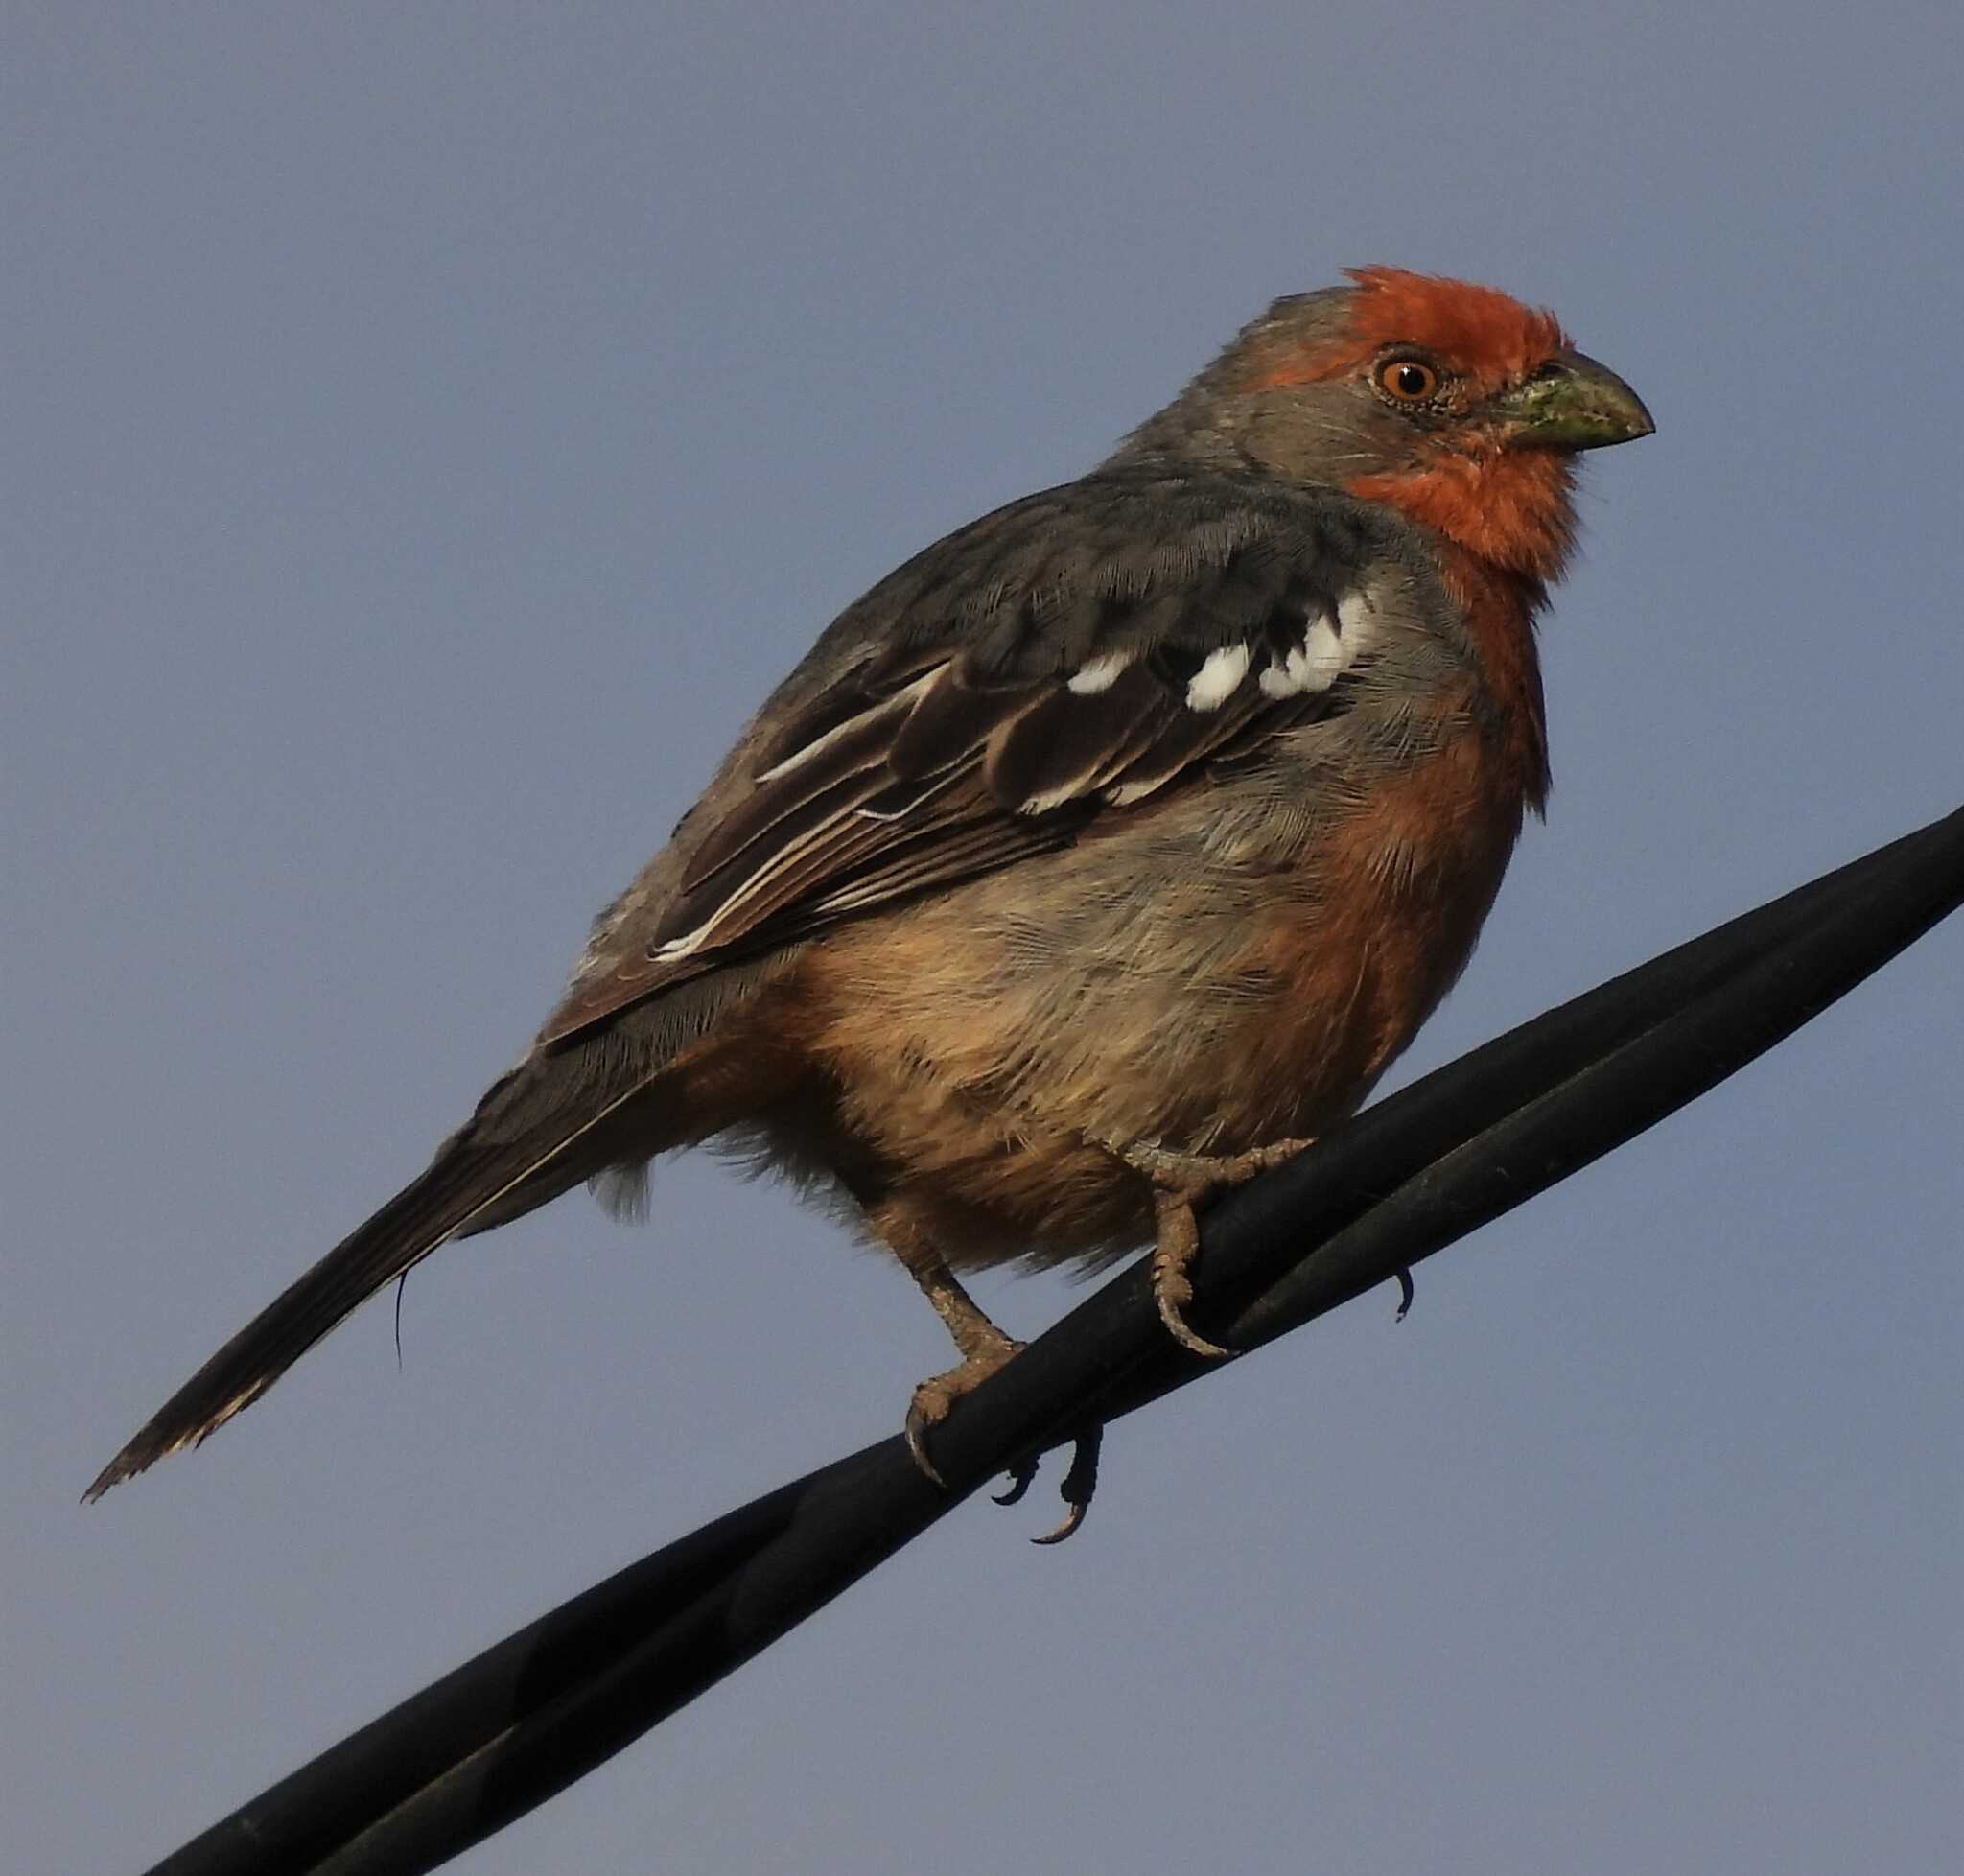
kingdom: Animalia
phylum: Chordata
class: Aves
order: Passeriformes
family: Cotingidae
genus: Phytotoma
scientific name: Phytotoma rutila
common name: White-tipped plantcutter
